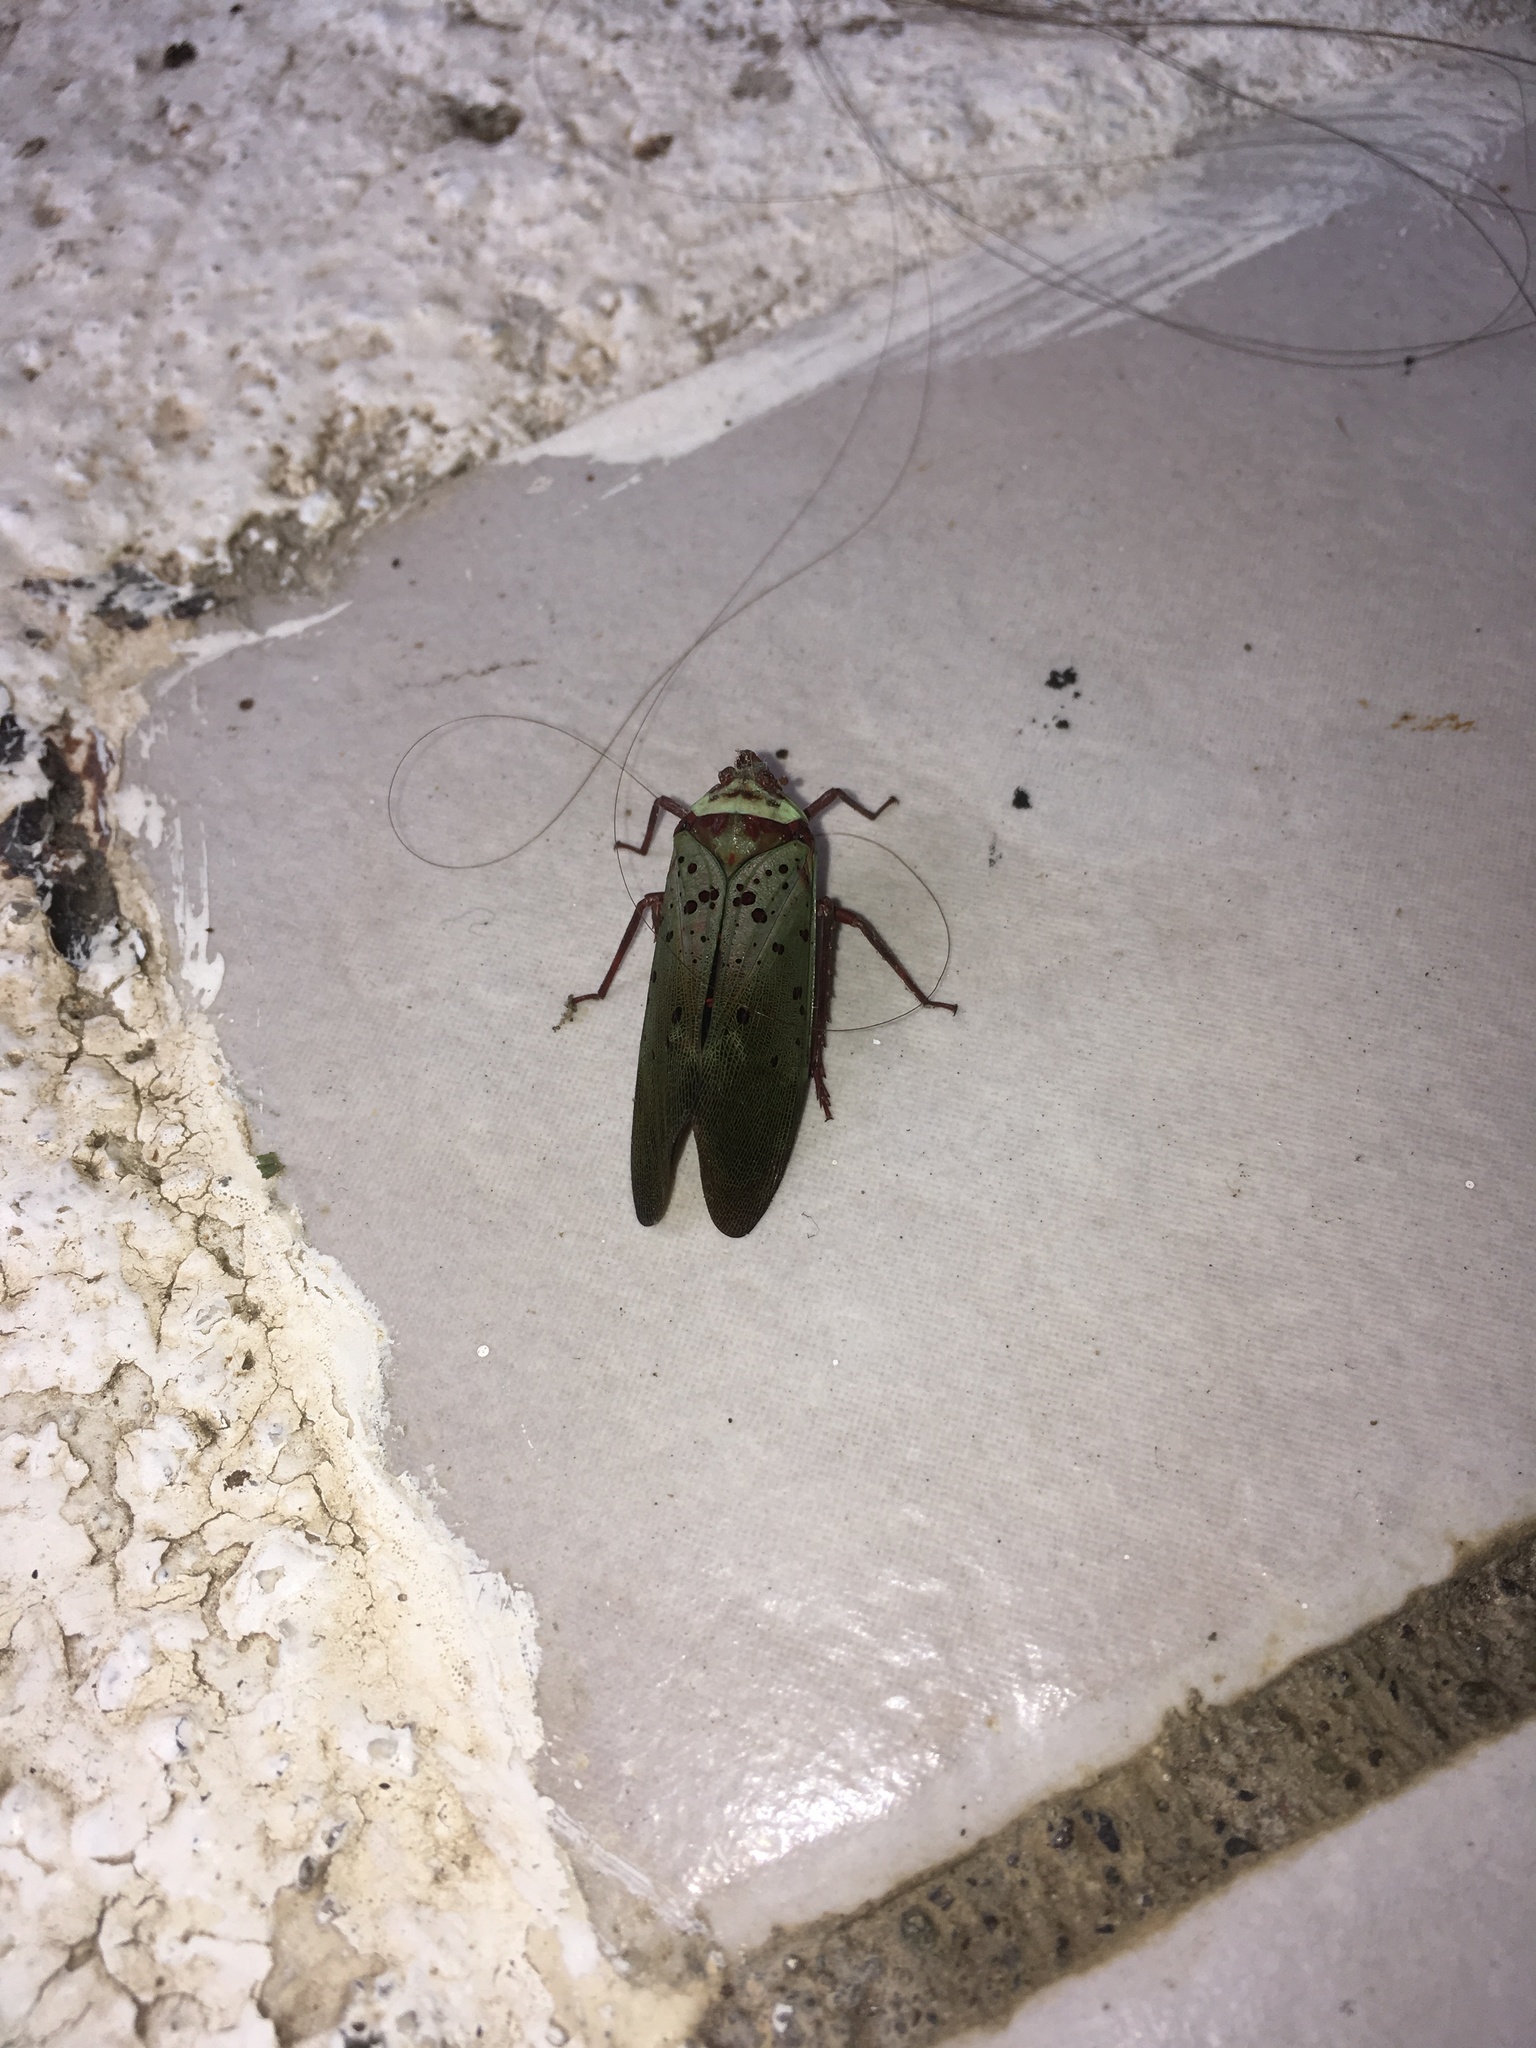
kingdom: Animalia
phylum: Arthropoda
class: Insecta
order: Hemiptera
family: Fulgoridae
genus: Copidocephala
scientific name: Copidocephala guttata
